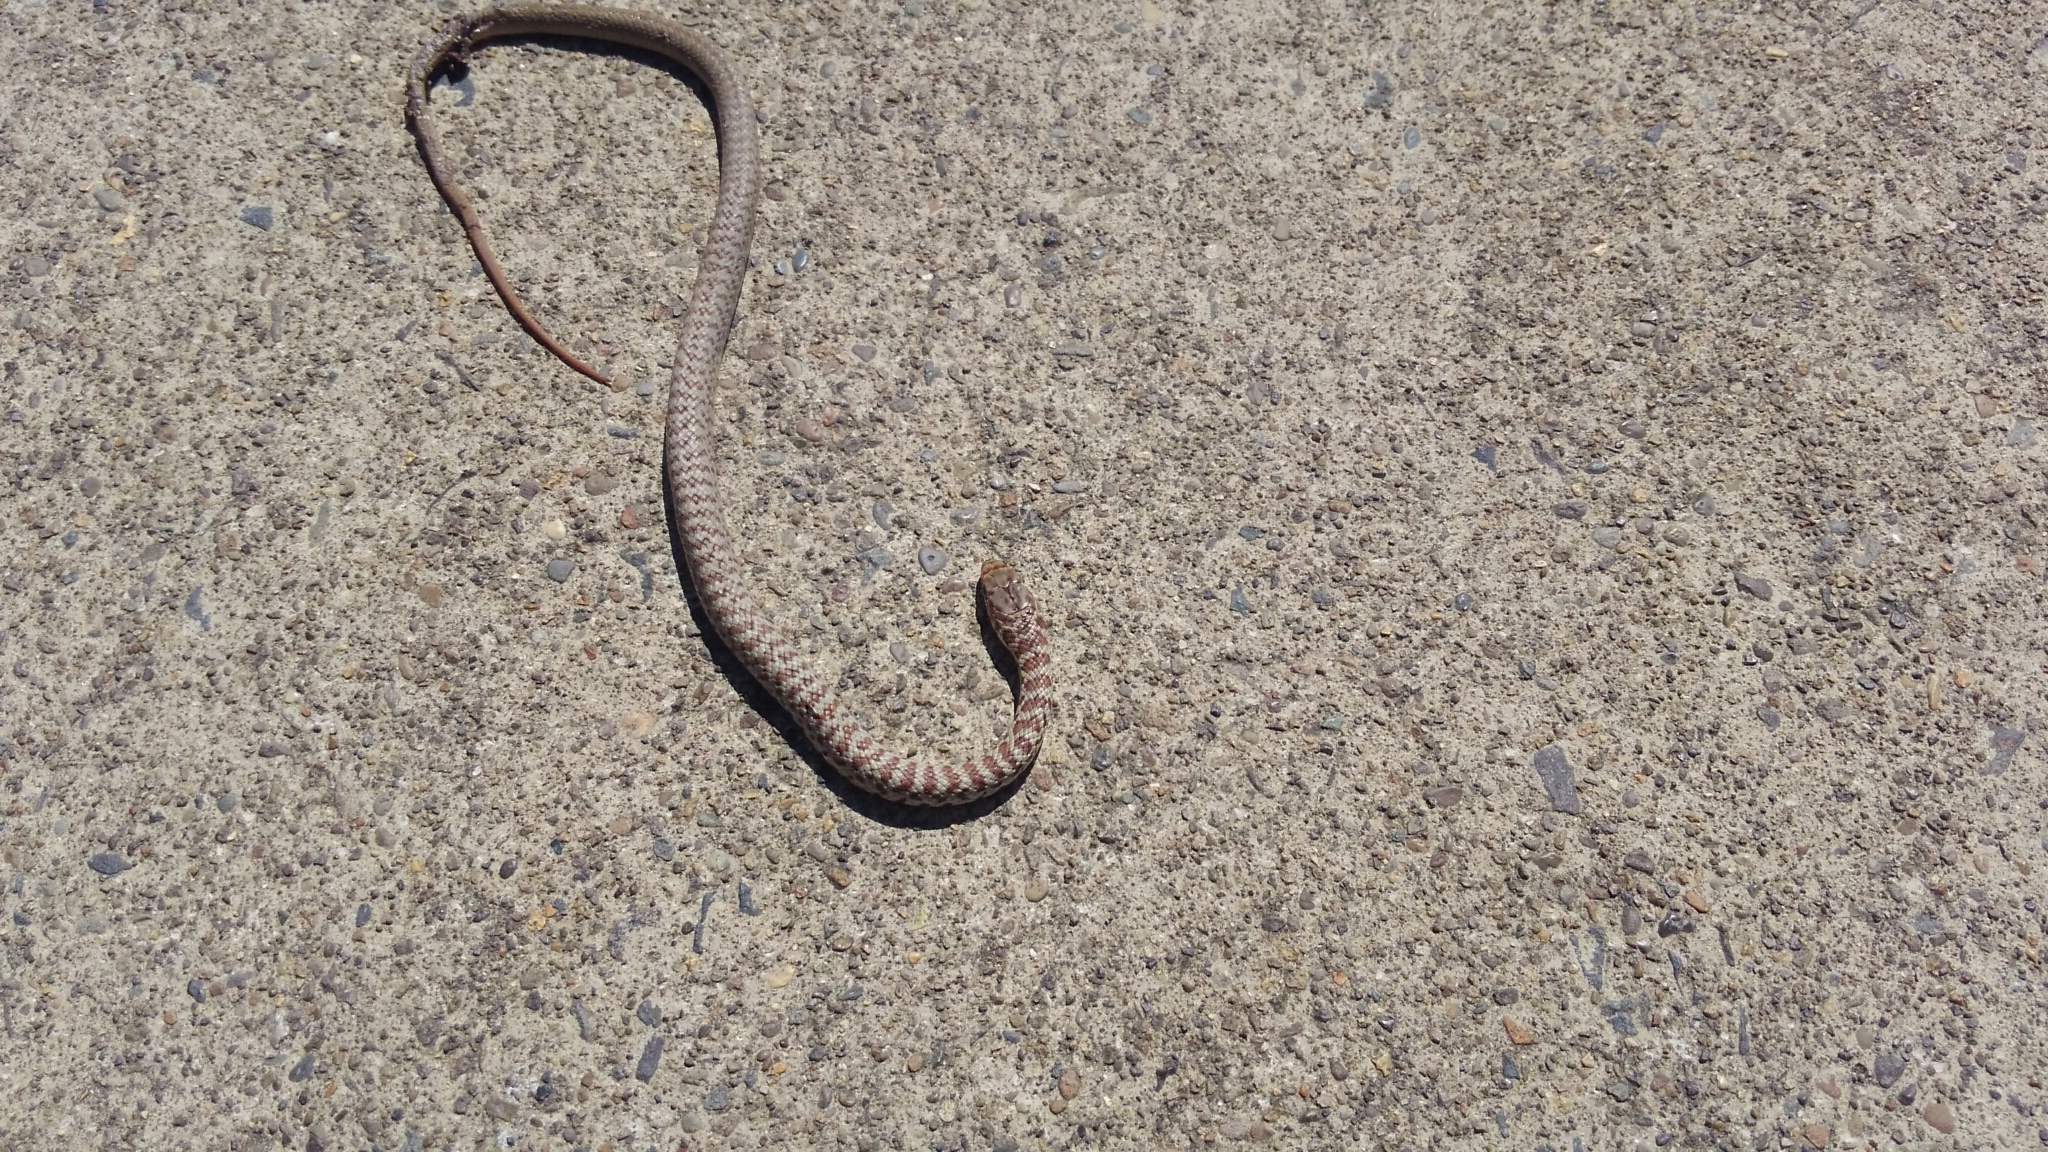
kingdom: Animalia
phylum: Chordata
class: Squamata
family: Colubridae
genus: Coluber
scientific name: Coluber constrictor
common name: Eastern racer
